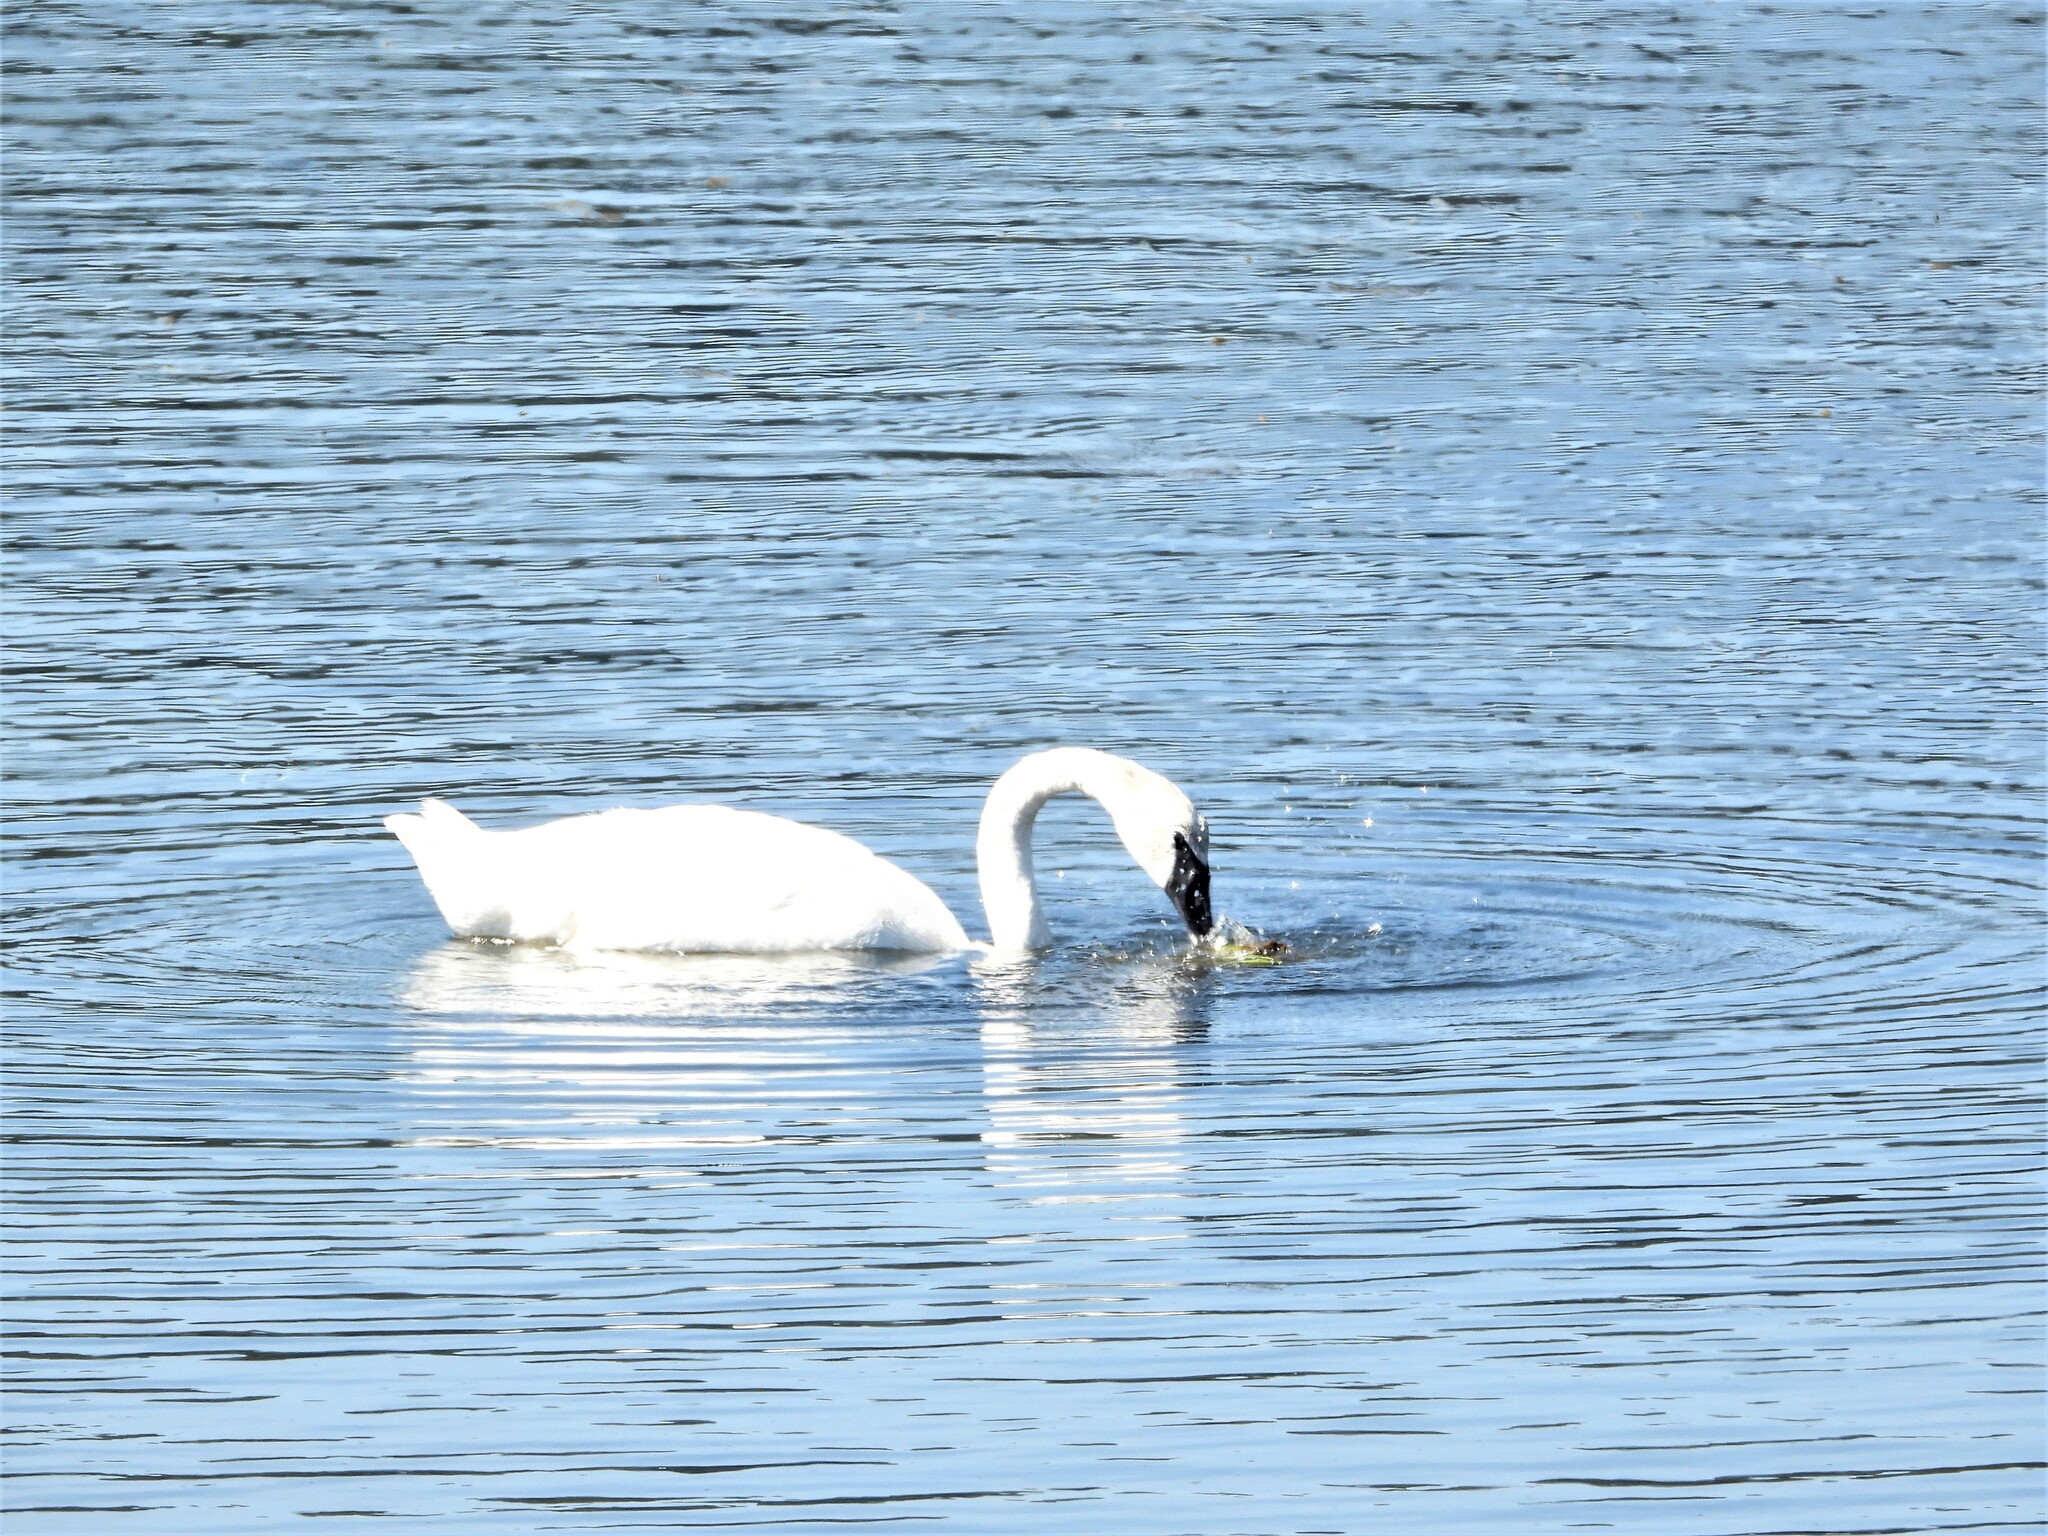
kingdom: Animalia
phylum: Chordata
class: Aves
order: Anseriformes
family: Anatidae
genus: Cygnus
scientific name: Cygnus buccinator
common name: Trumpeter swan
